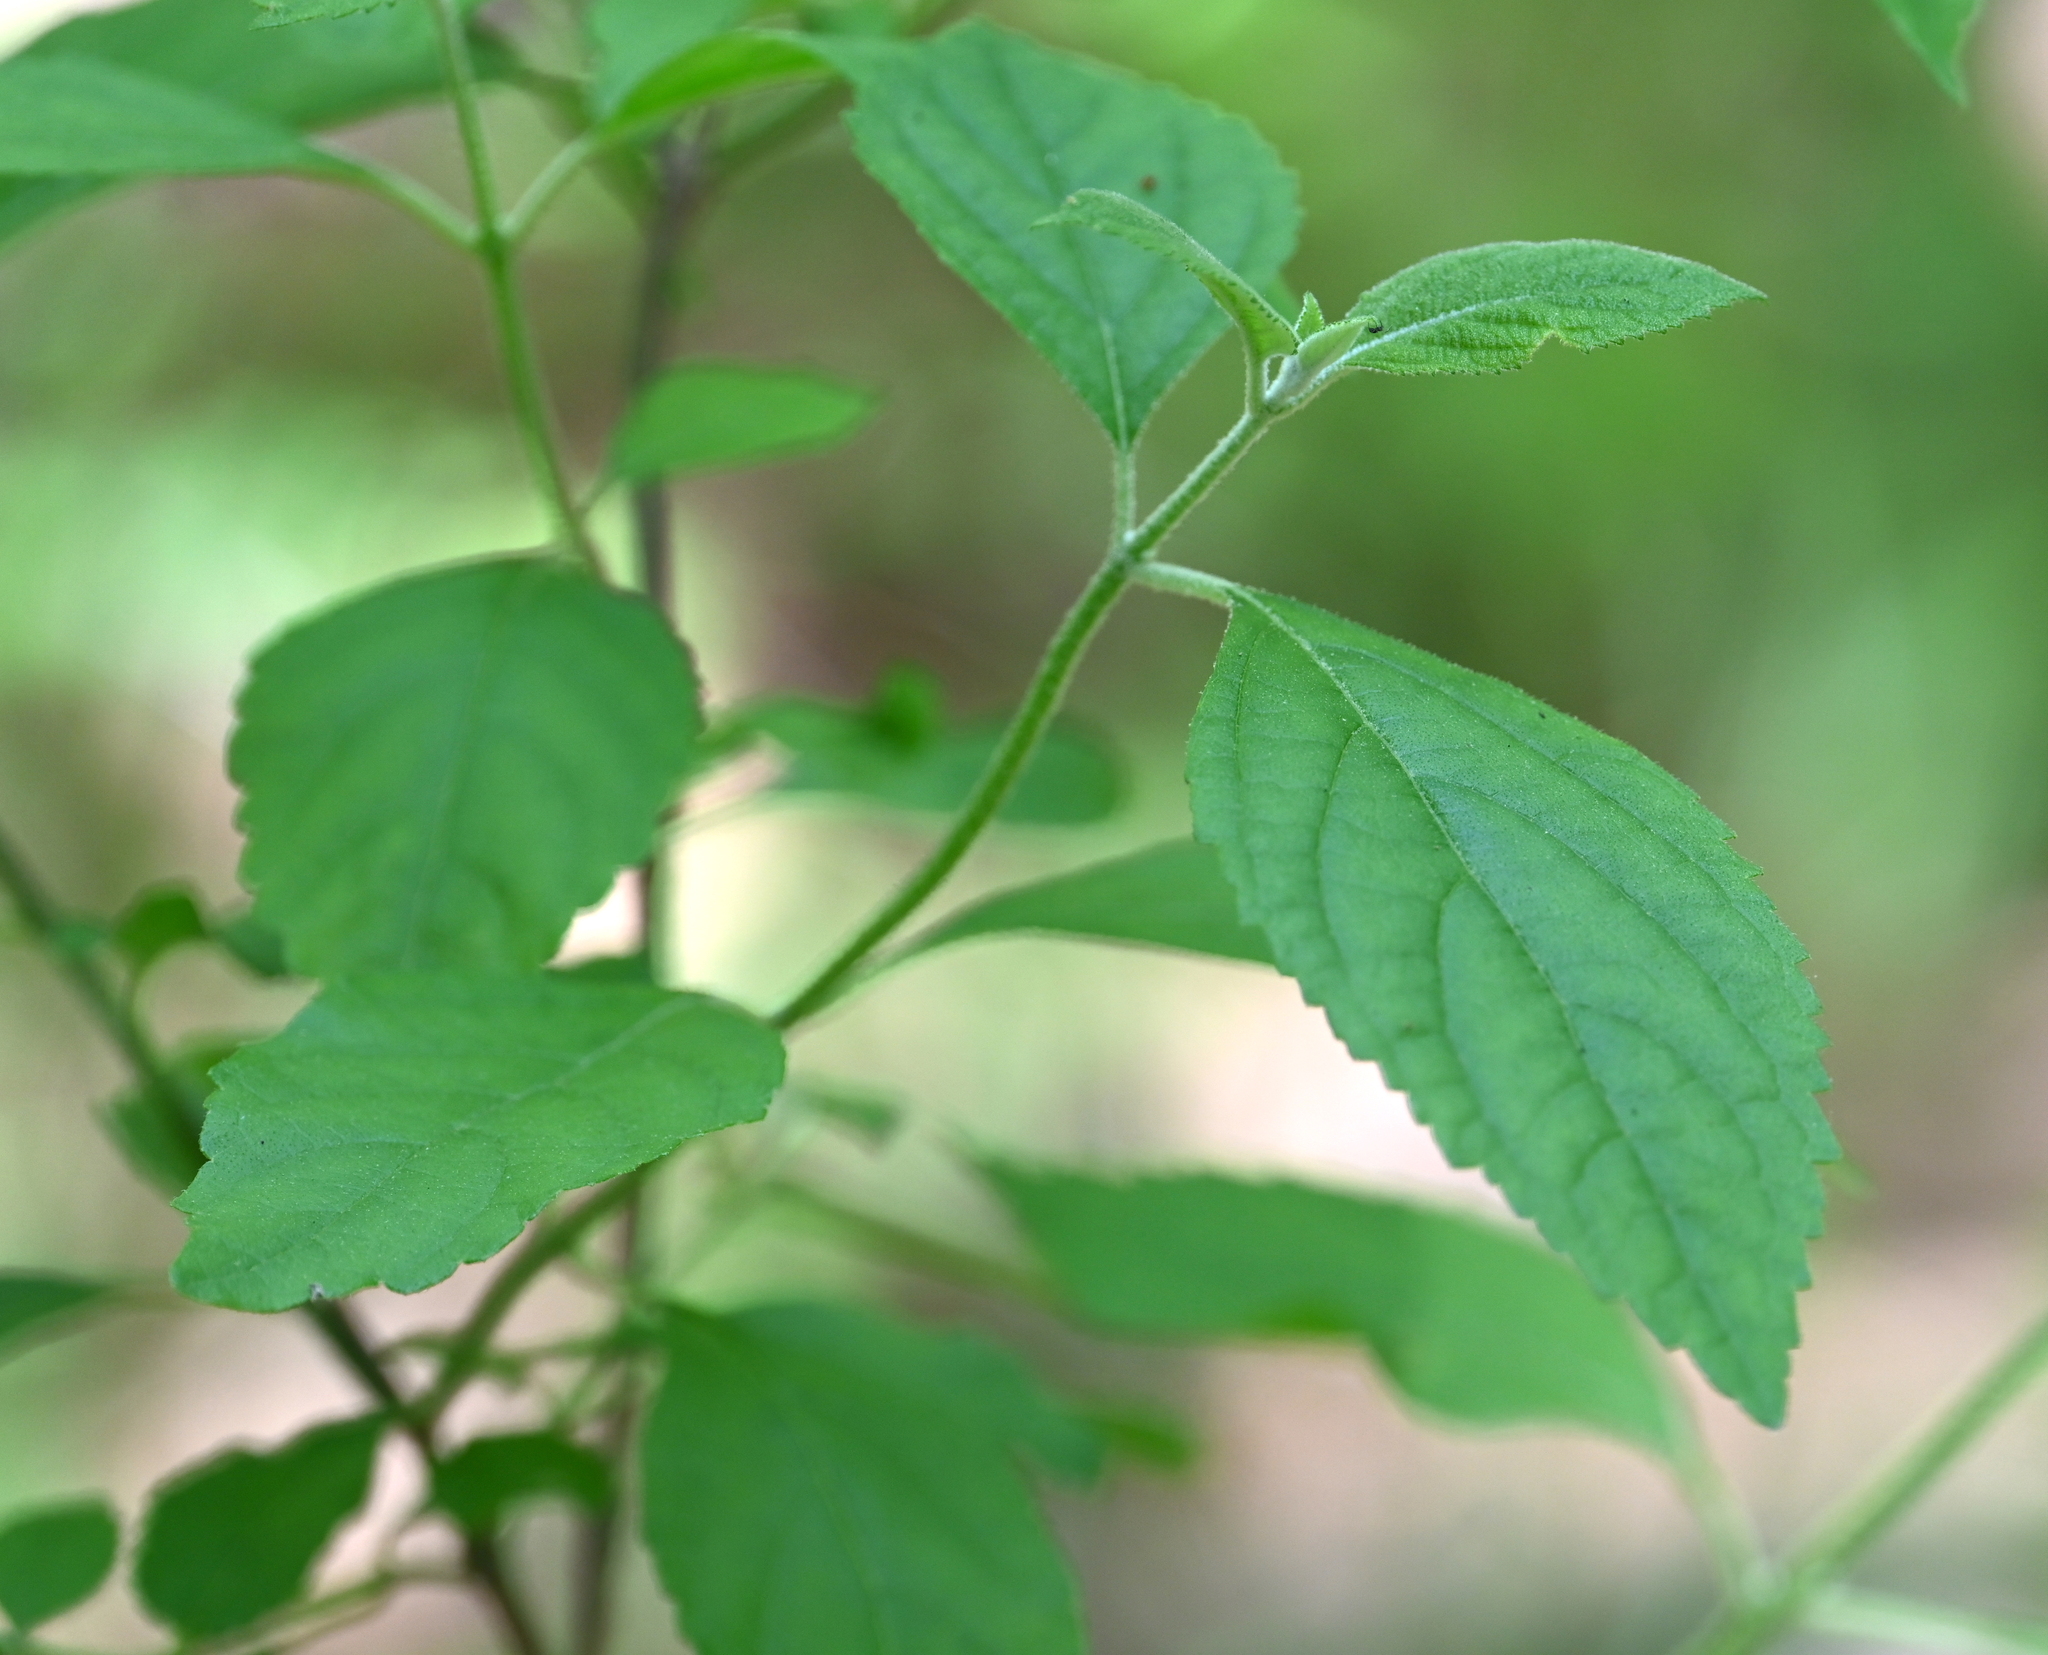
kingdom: Plantae
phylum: Tracheophyta
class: Magnoliopsida
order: Lamiales
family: Lamiaceae
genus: Callicarpa
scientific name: Callicarpa americana
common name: American beautyberry
